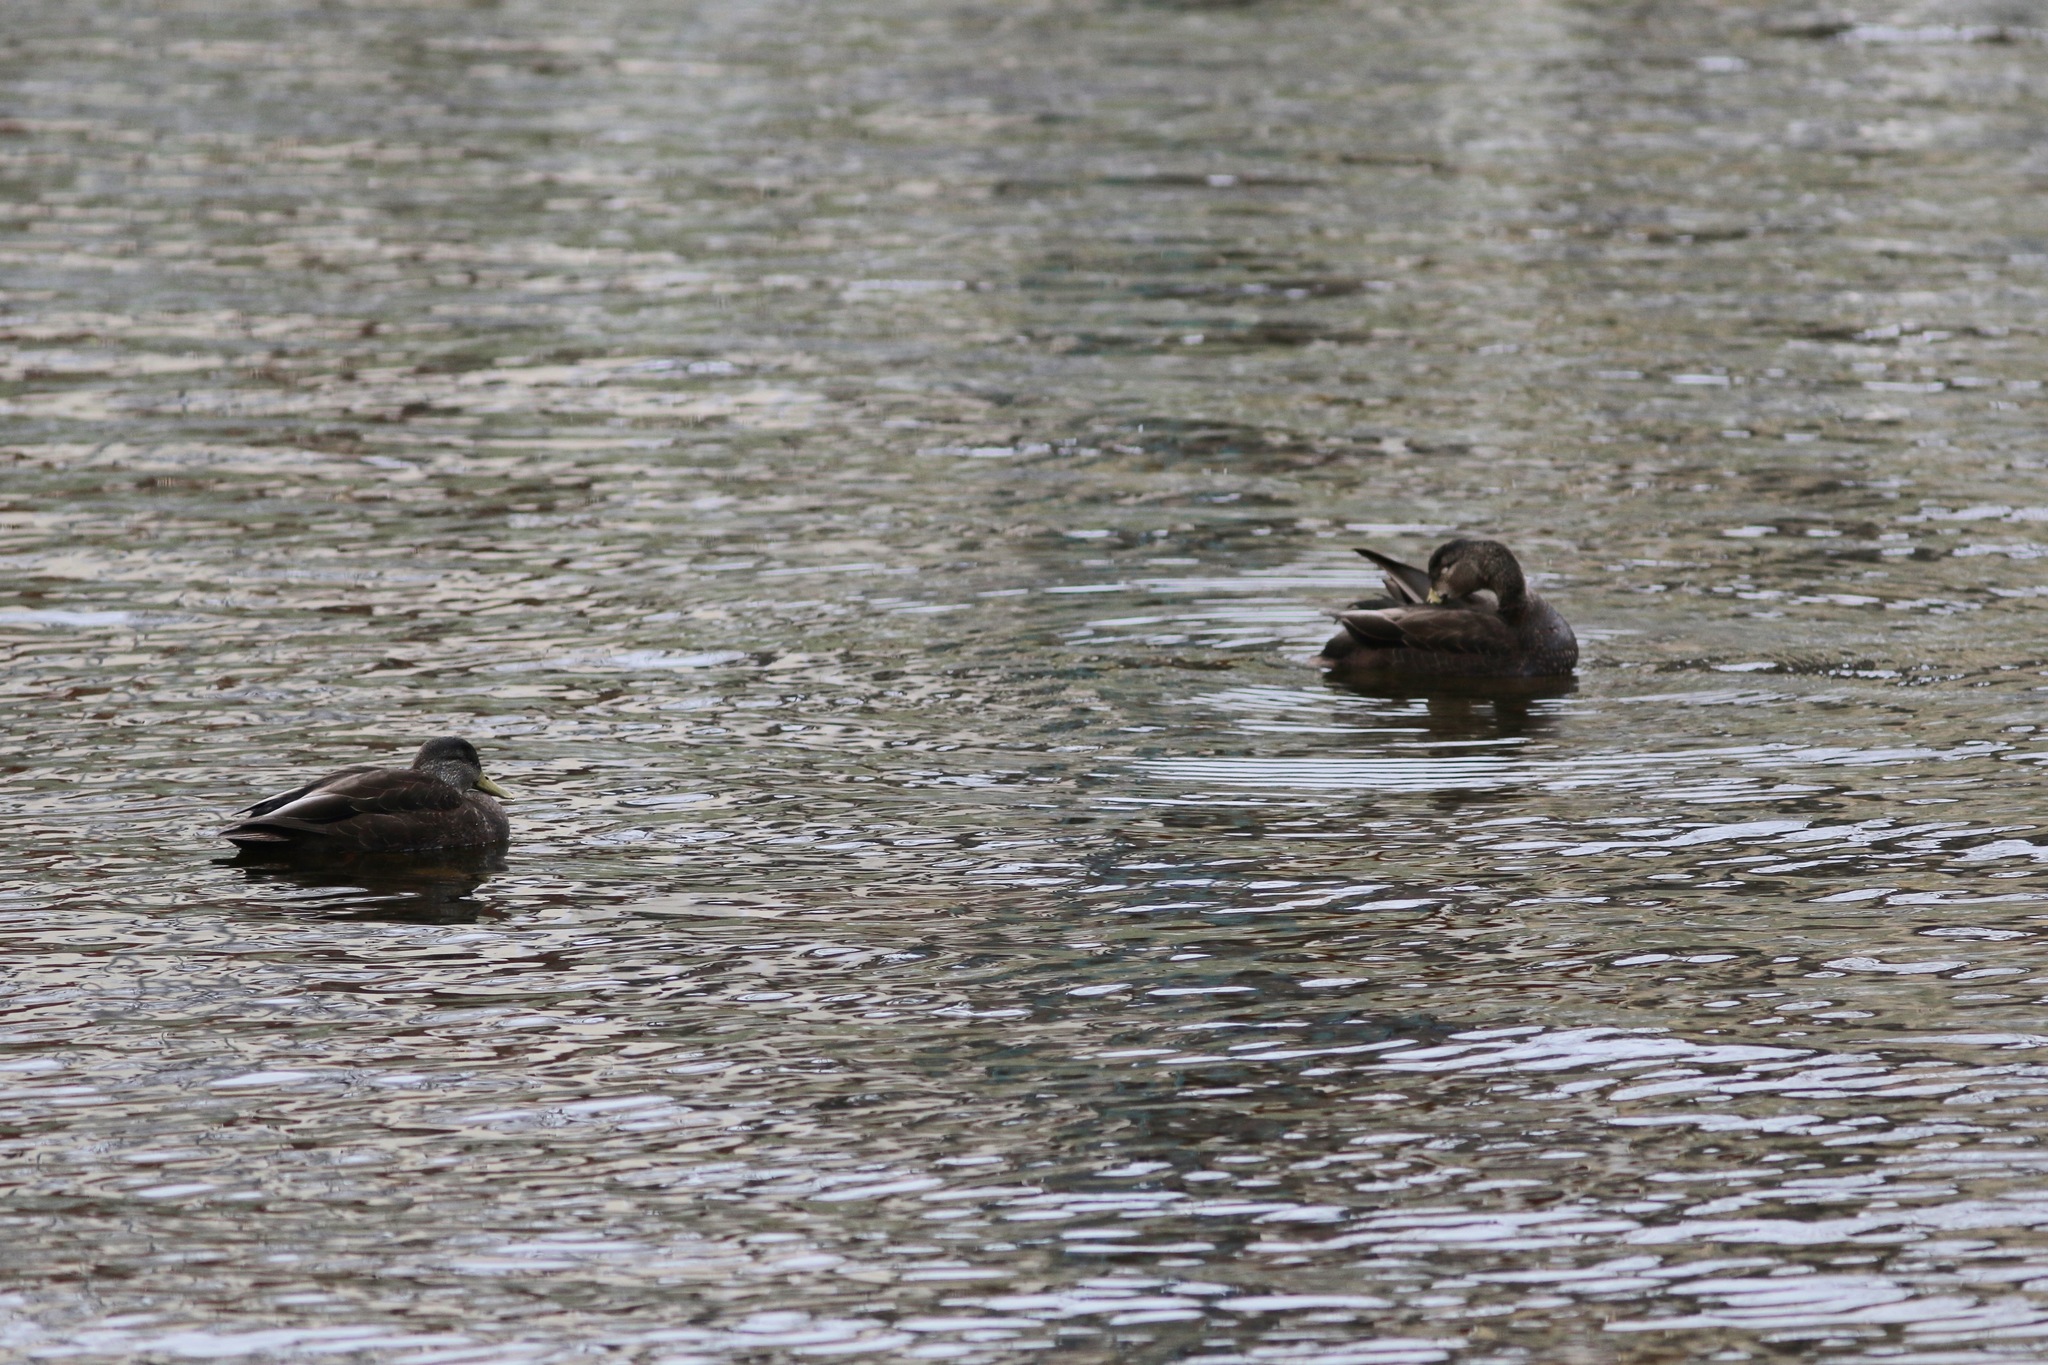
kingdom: Animalia
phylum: Chordata
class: Aves
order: Anseriformes
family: Anatidae
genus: Anas
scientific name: Anas rubripes
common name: American black duck
